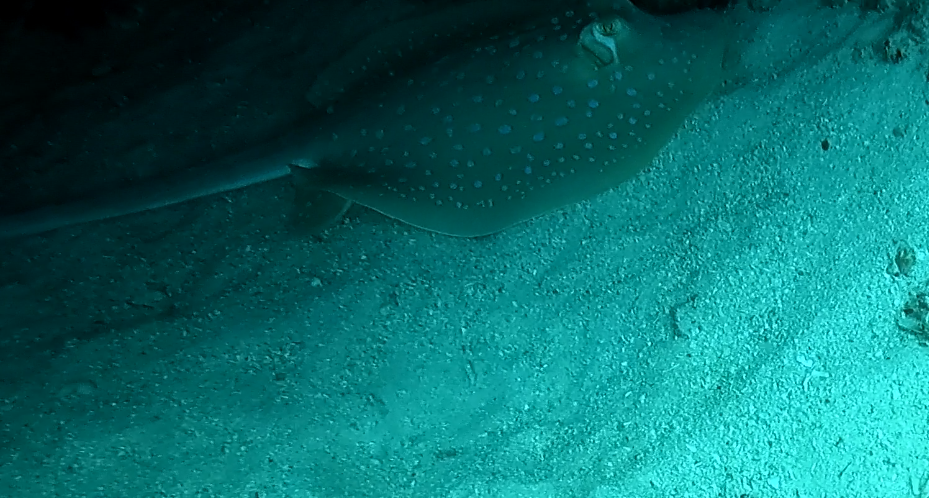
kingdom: Animalia
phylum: Chordata
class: Elasmobranchii
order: Myliobatiformes
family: Dasyatidae
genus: Taeniura
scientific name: Taeniura lymma
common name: Bluespotted ribbontail ray
